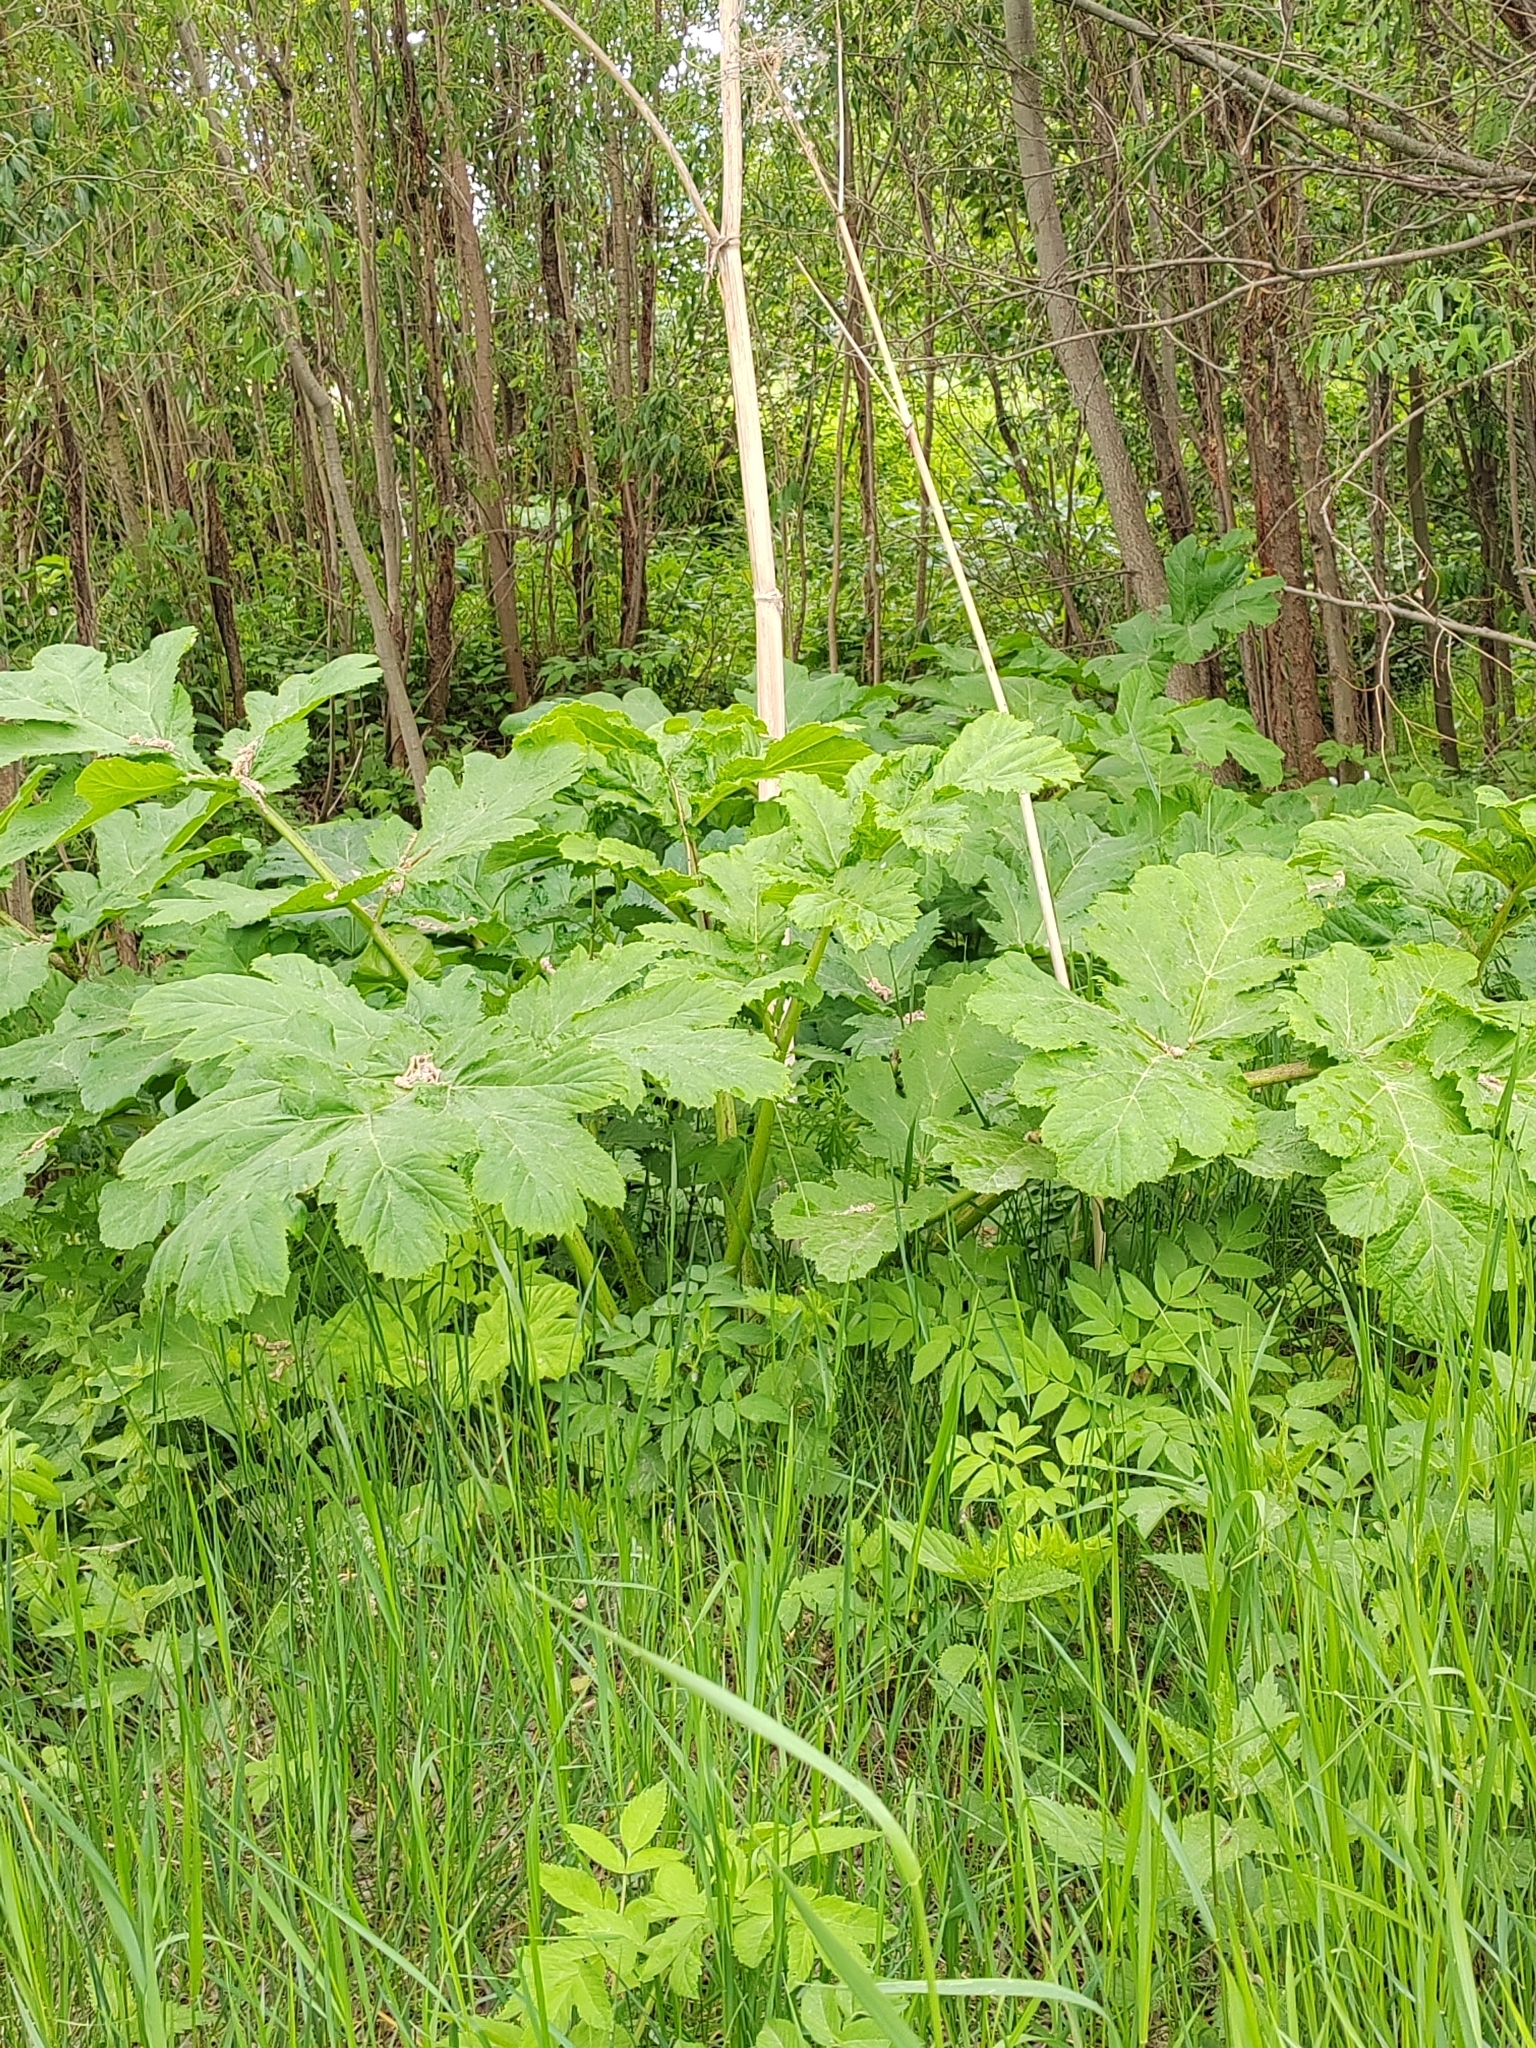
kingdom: Plantae
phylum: Tracheophyta
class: Magnoliopsida
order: Apiales
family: Apiaceae
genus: Heracleum
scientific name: Heracleum sosnowskyi
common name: Sosnowsky's hogweed
